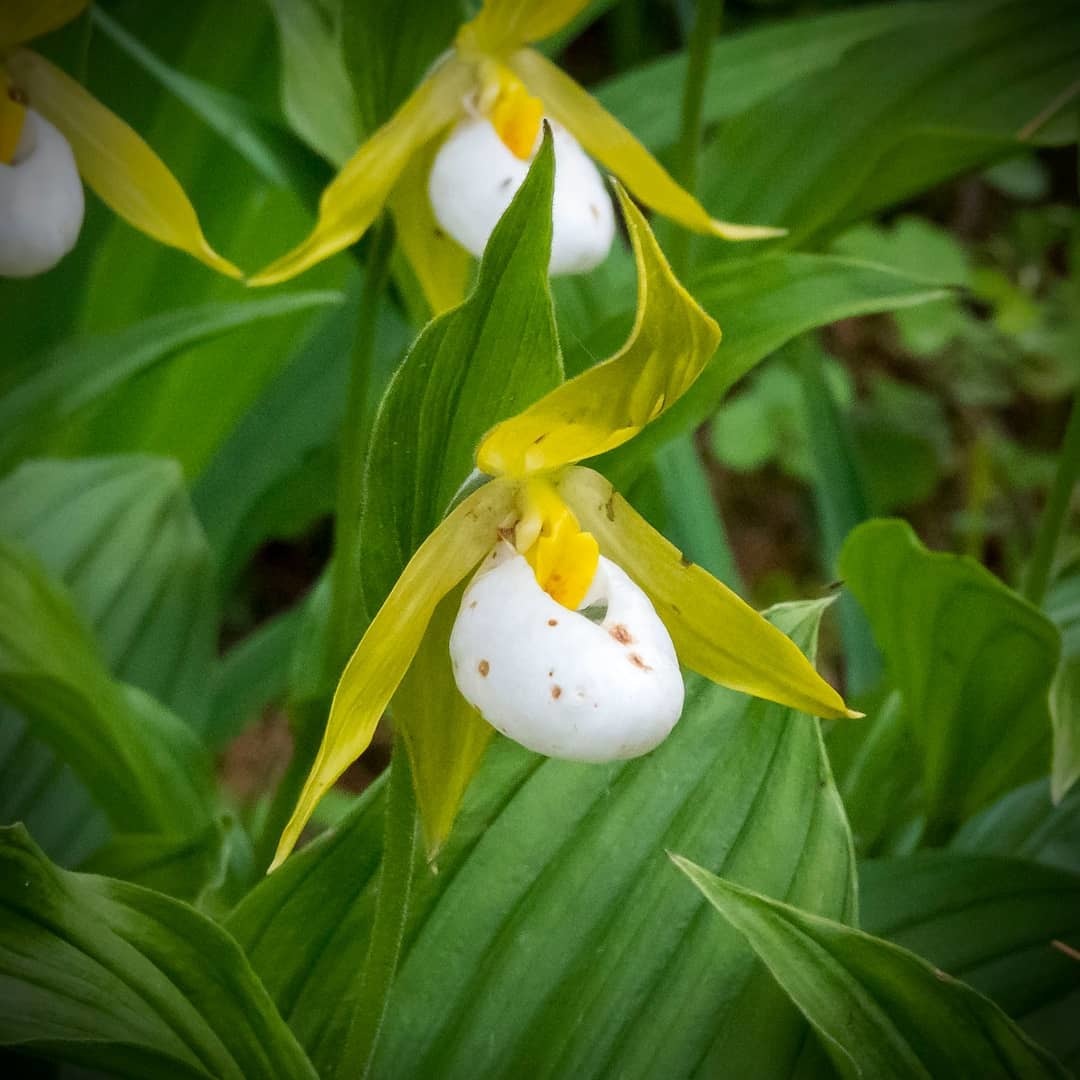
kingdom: Plantae
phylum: Tracheophyta
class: Liliopsida
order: Asparagales
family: Orchidaceae
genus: Cypripedium
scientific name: Cypripedium cordigerum
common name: Heart-shaped lip cypripedium
